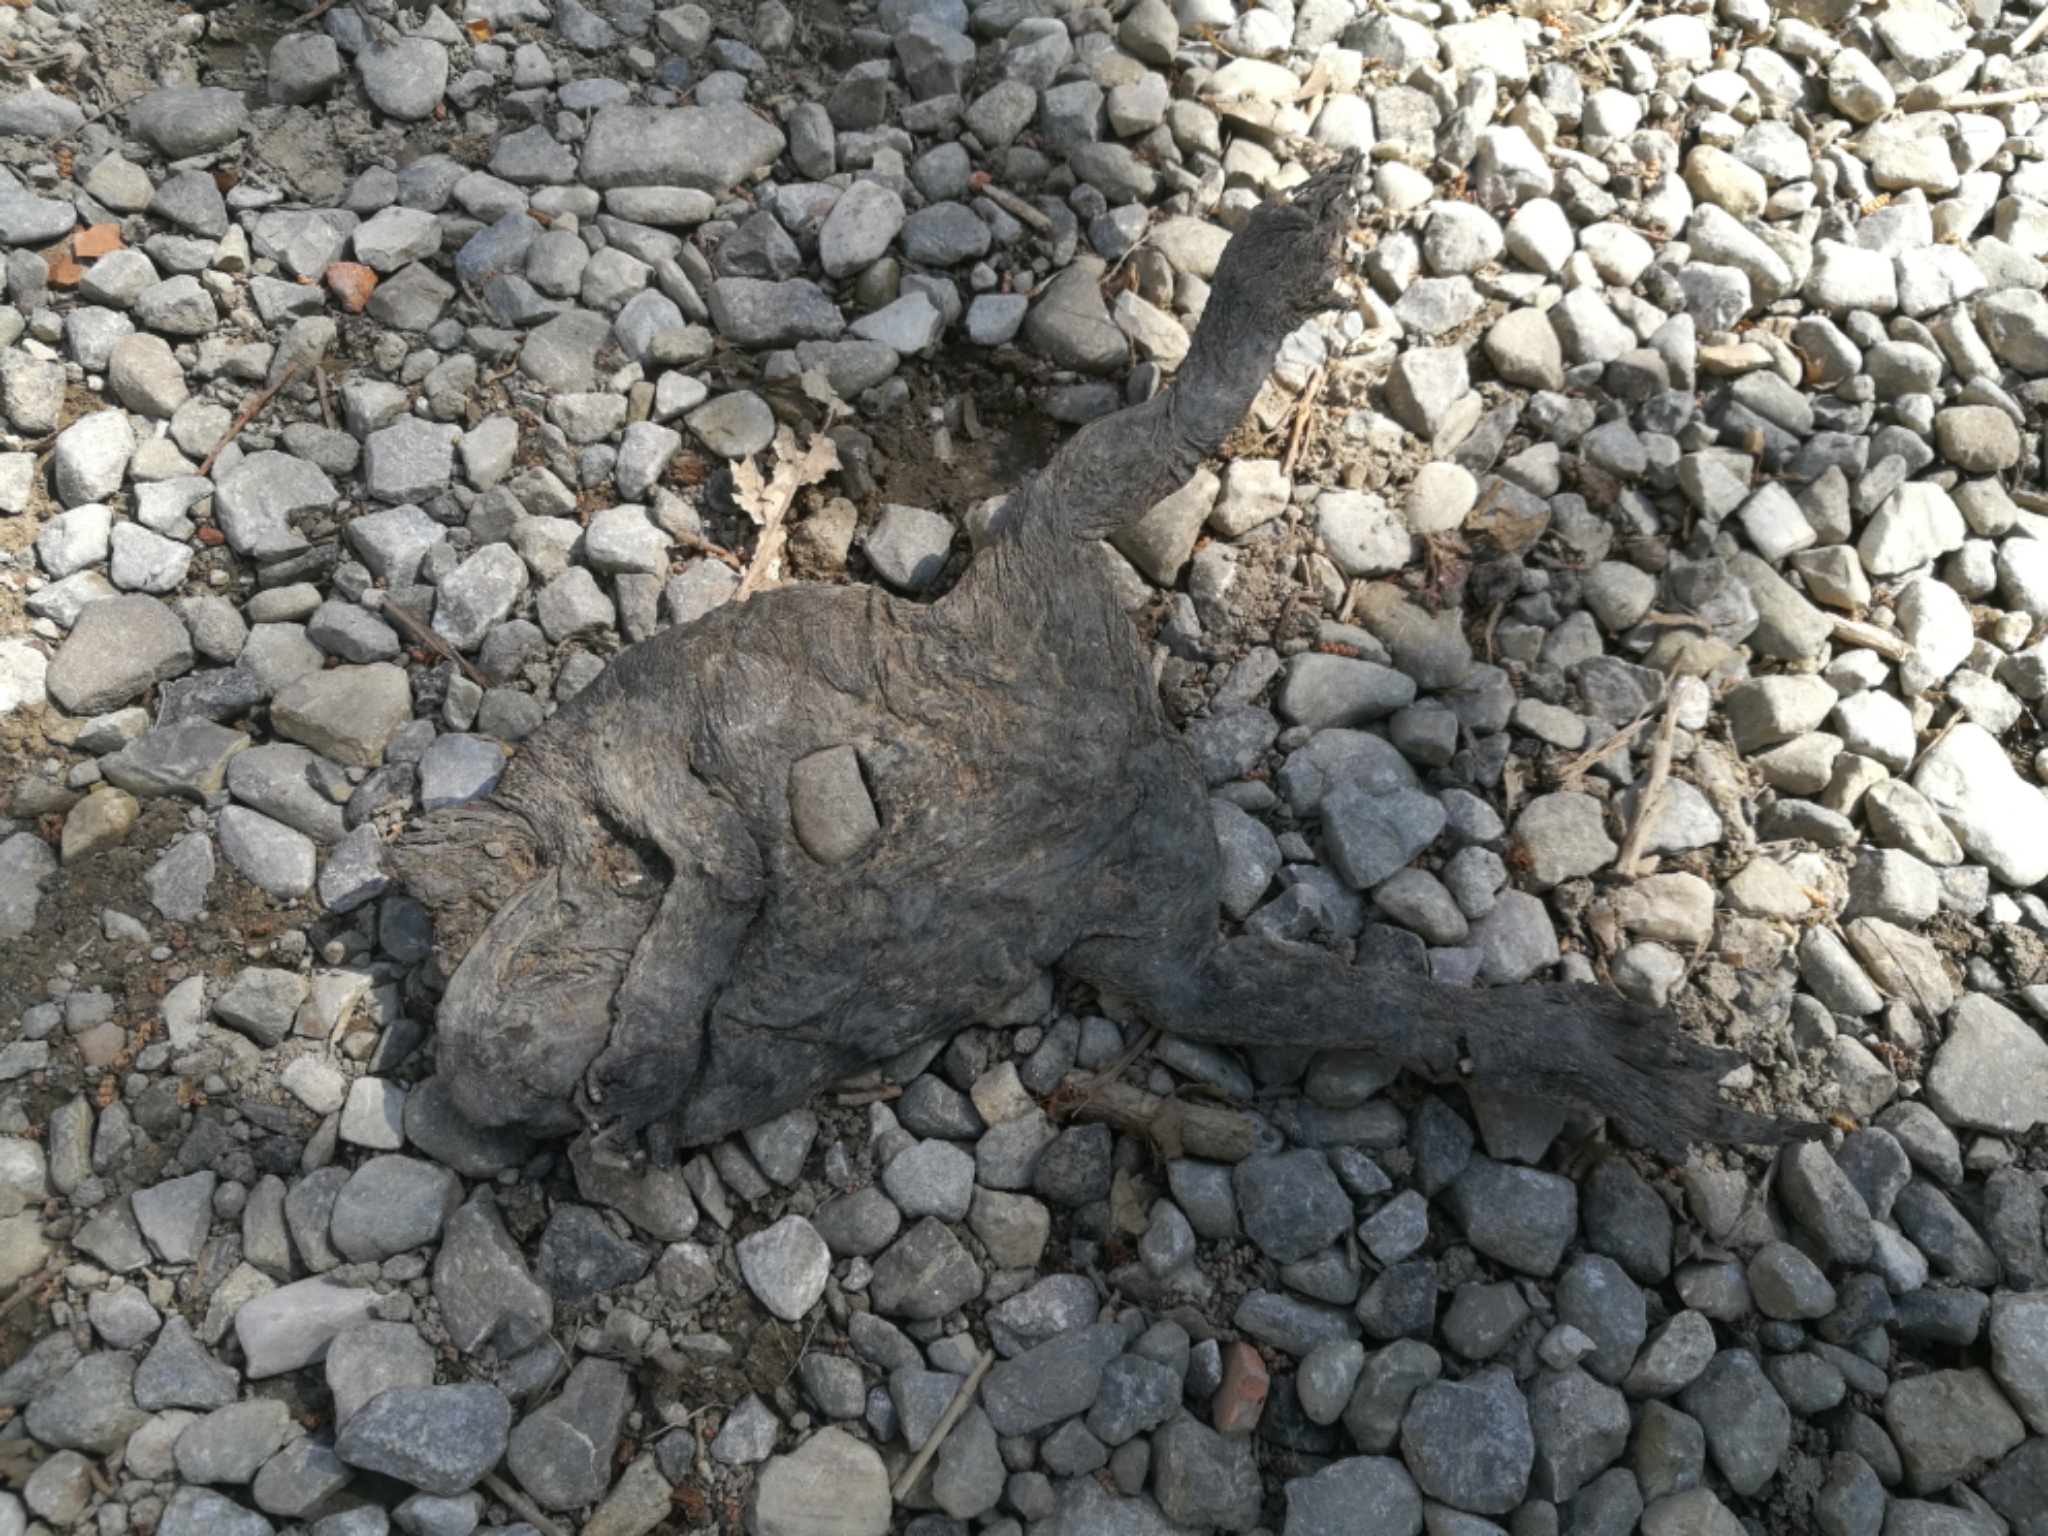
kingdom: Animalia
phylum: Chordata
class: Amphibia
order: Anura
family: Bufonidae
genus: Bufo
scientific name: Bufo bufo
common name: Common toad
